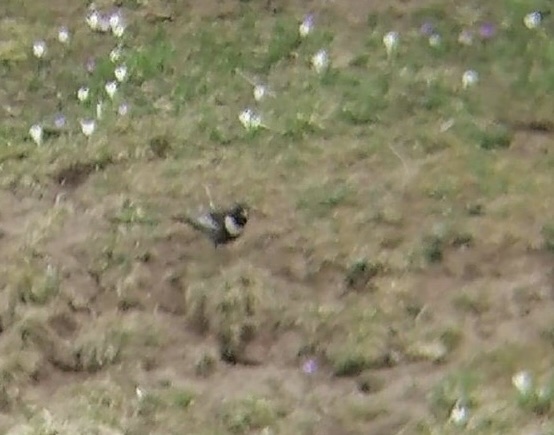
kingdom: Animalia
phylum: Chordata
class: Aves
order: Passeriformes
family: Turdidae
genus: Turdus
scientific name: Turdus torquatus
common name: Ring ouzel
